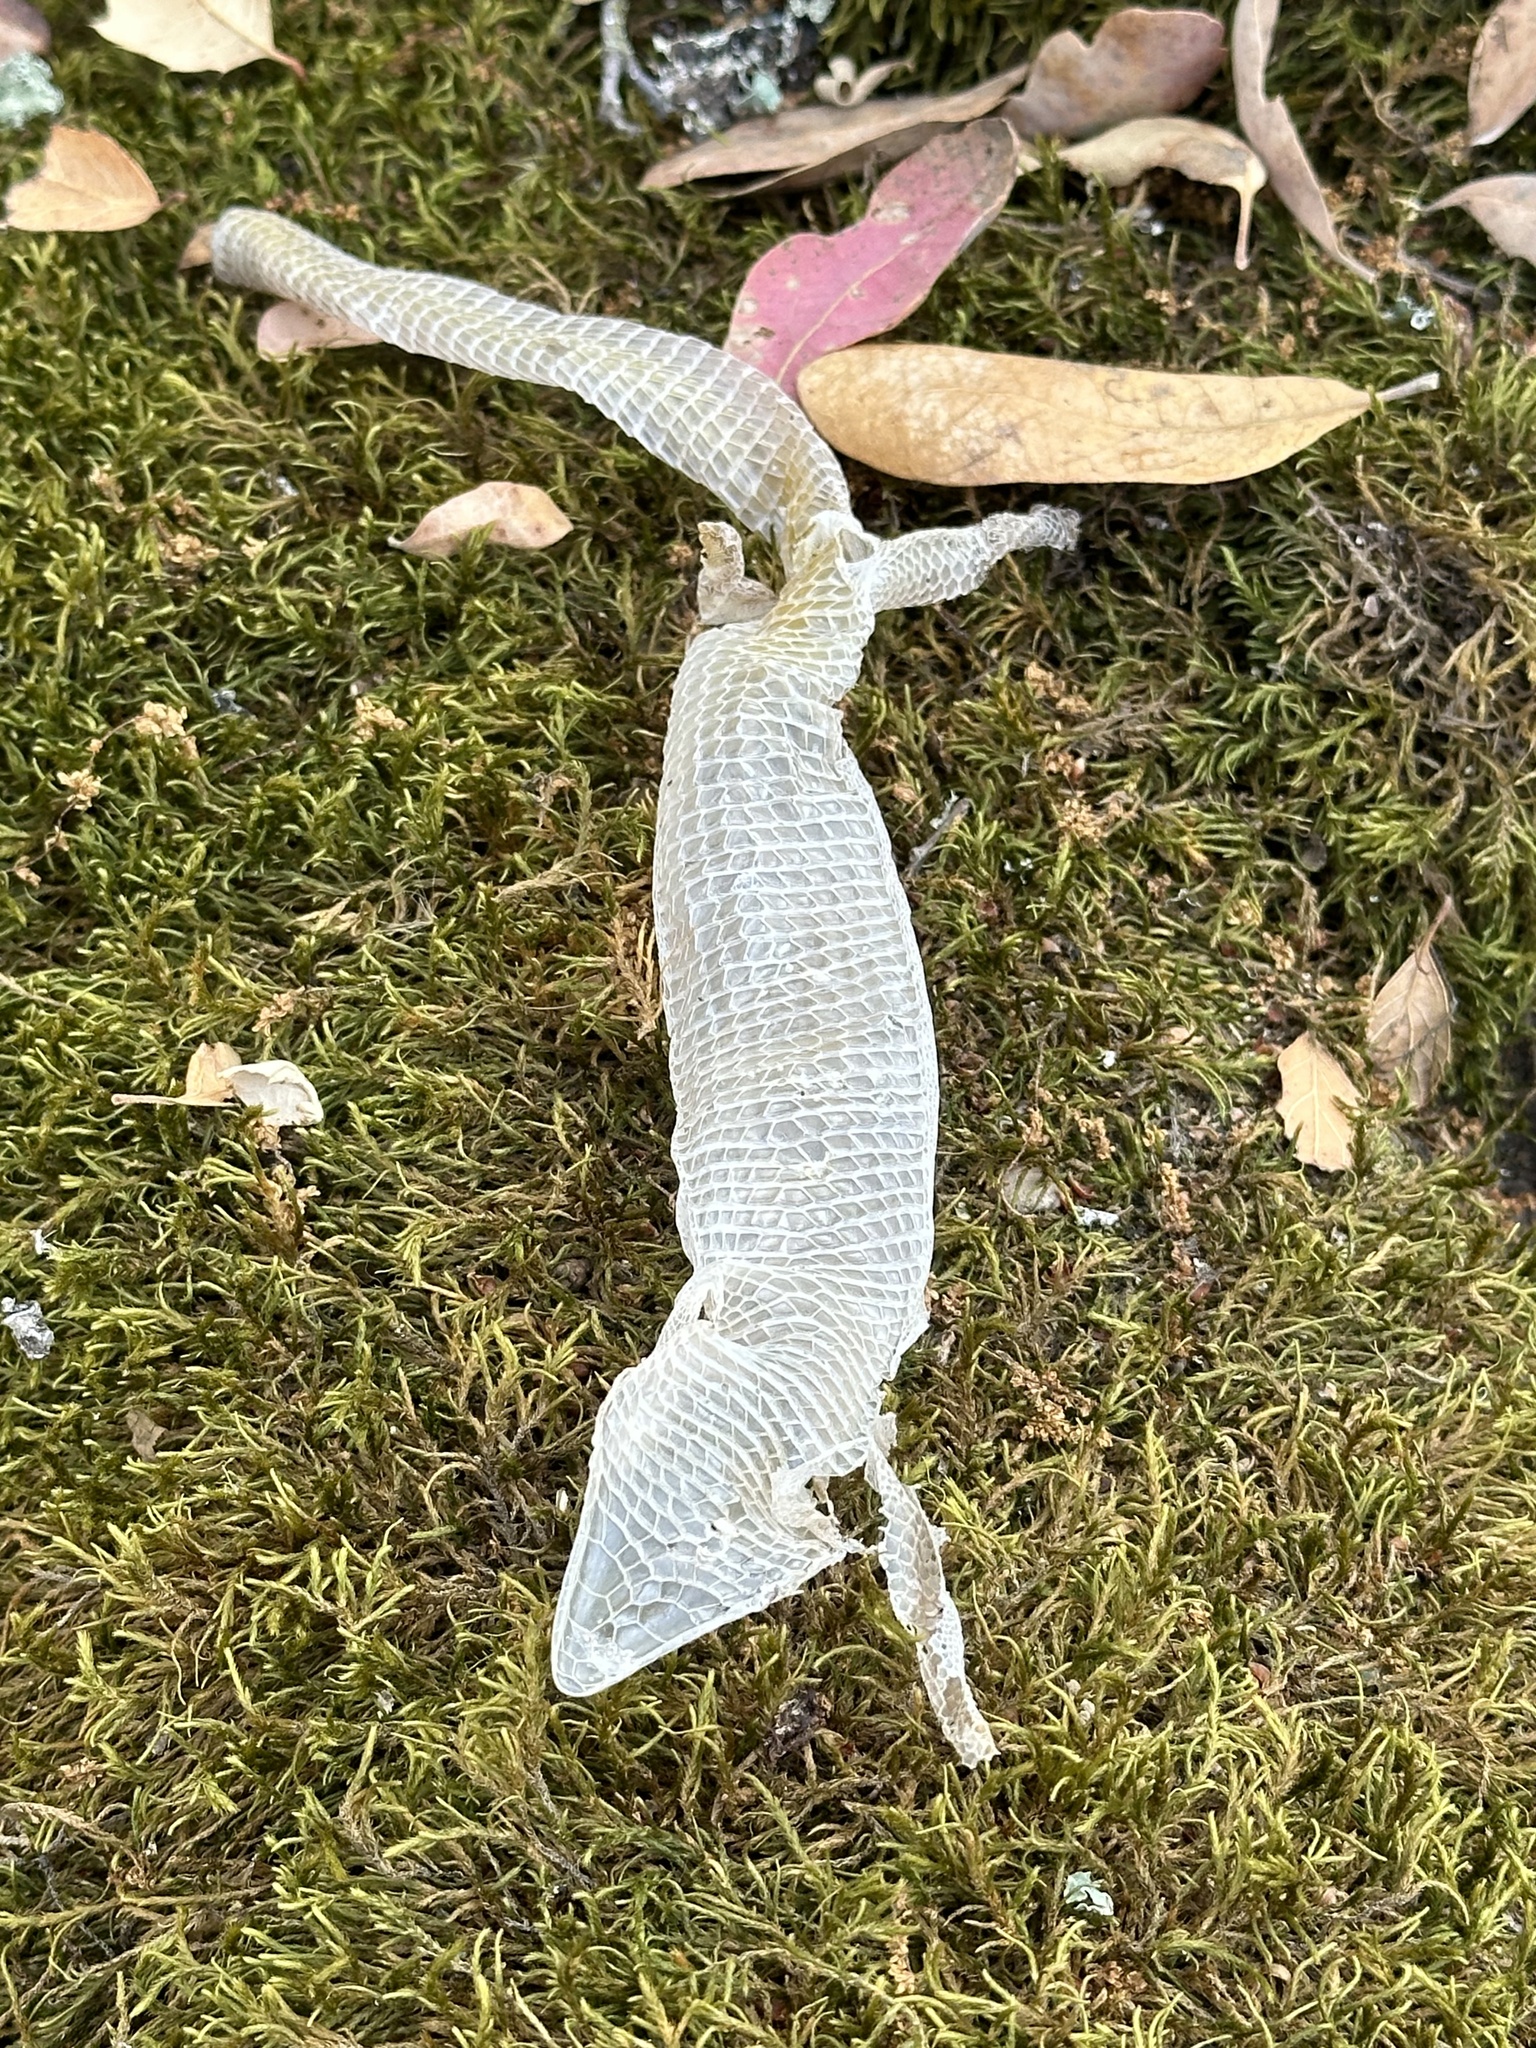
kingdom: Animalia
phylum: Chordata
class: Squamata
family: Anguidae
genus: Elgaria
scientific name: Elgaria multicarinata
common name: Southern alligator lizard
